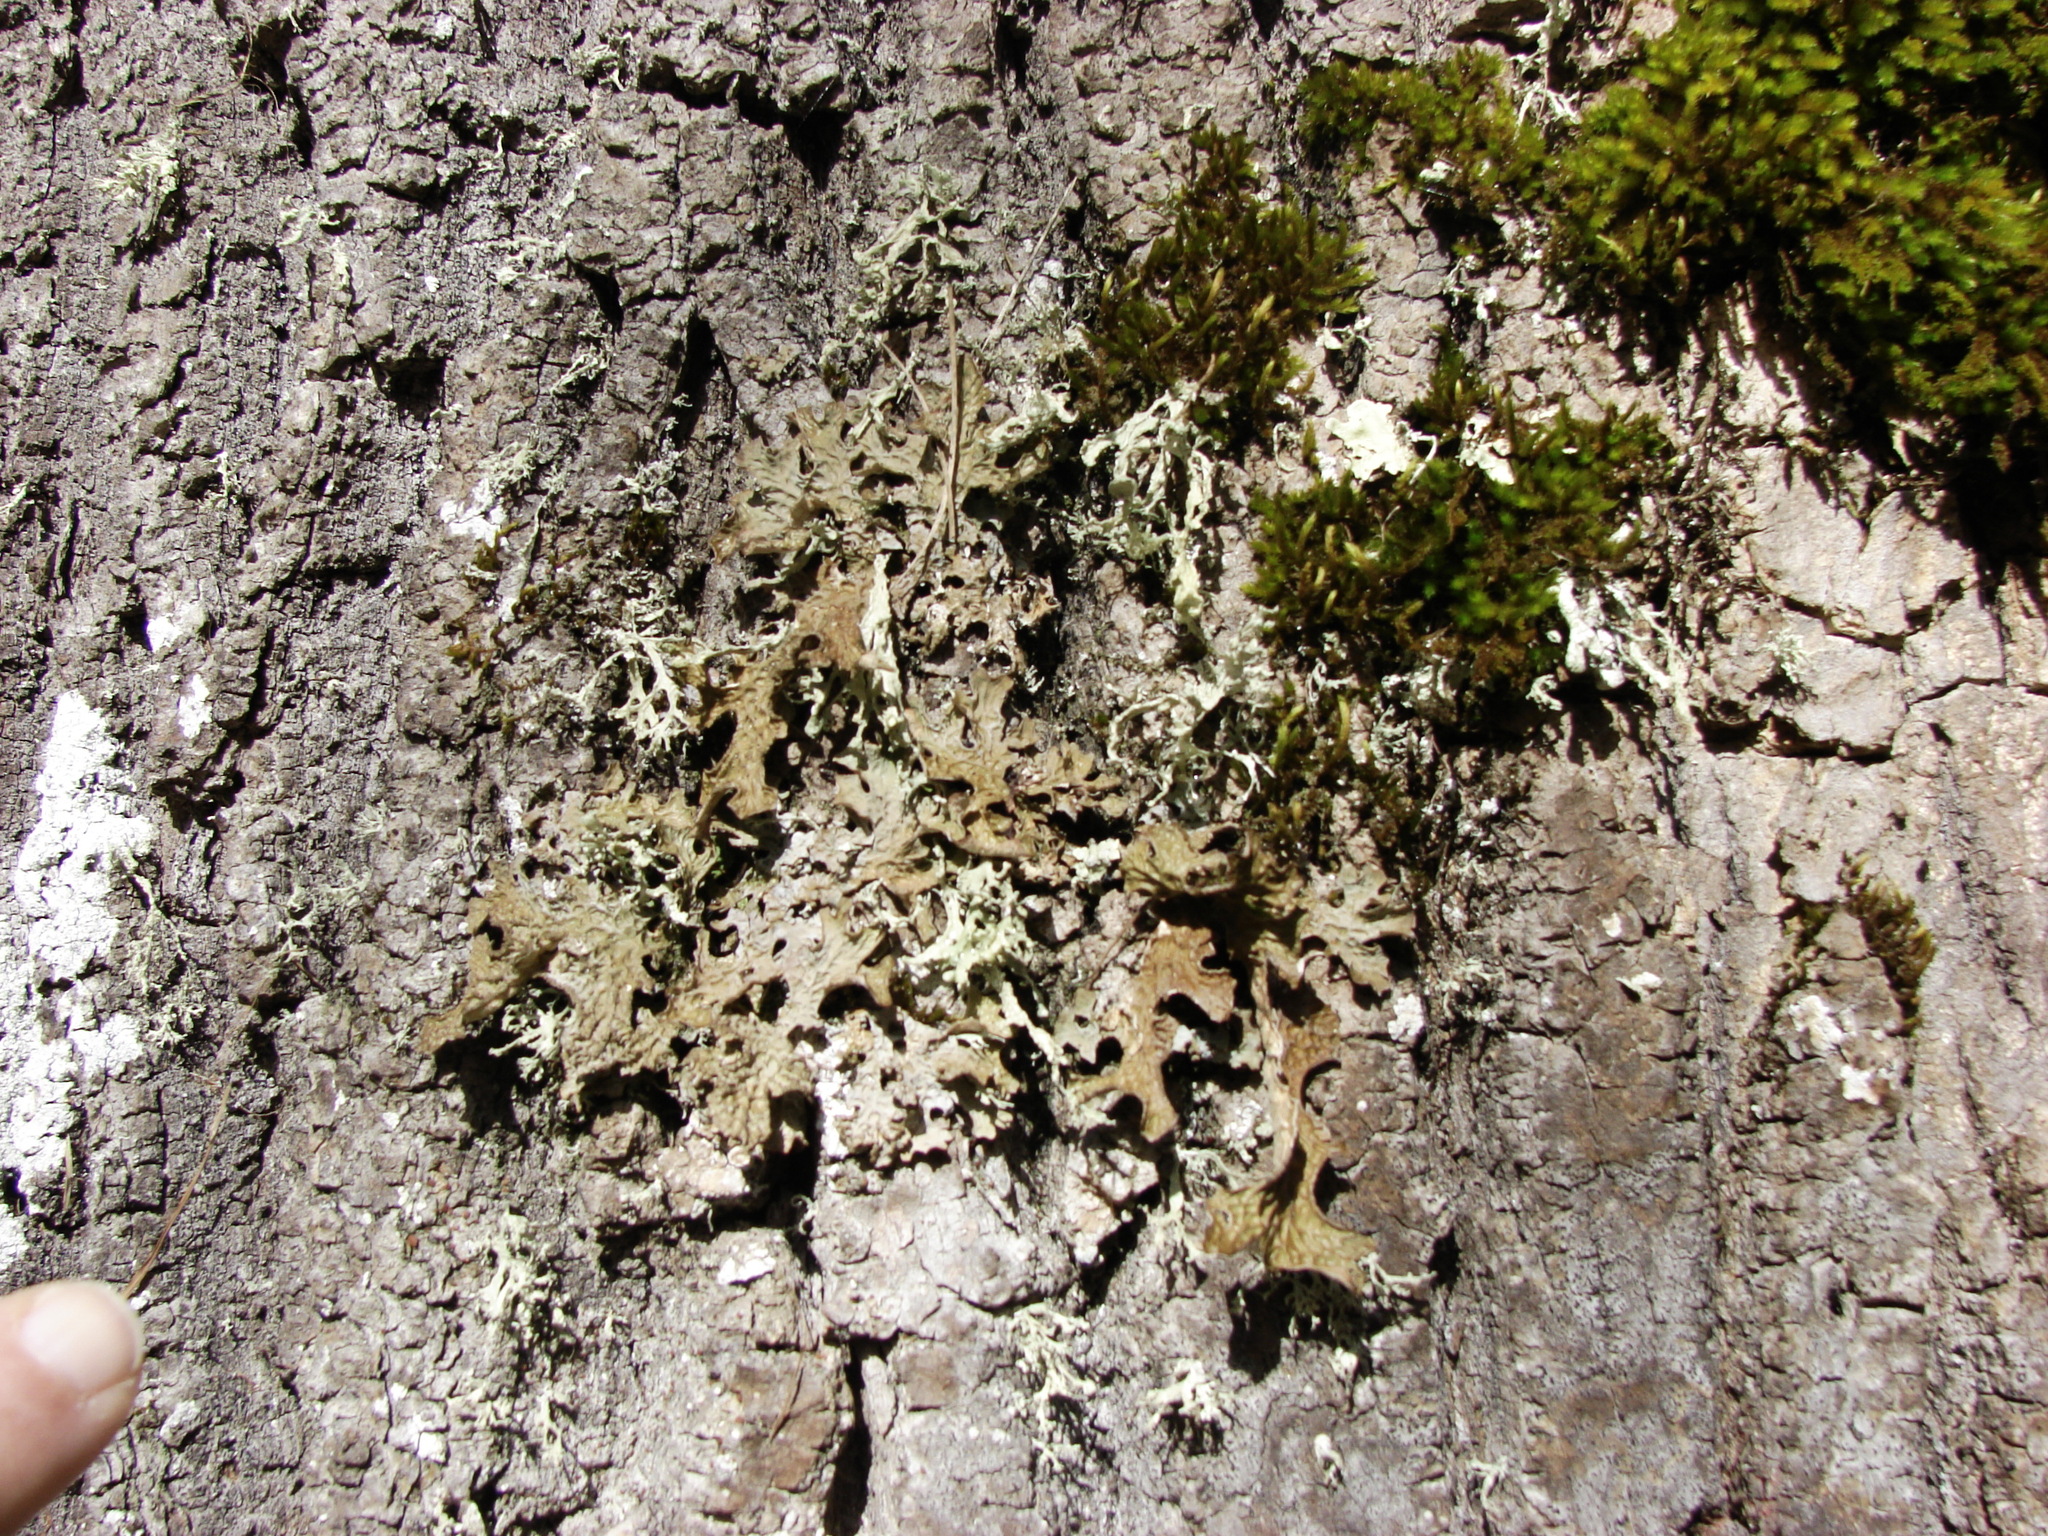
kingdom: Fungi
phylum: Ascomycota
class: Lecanoromycetes
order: Peltigerales
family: Lobariaceae
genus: Lobaria
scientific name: Lobaria pulmonaria
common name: Lungwort
